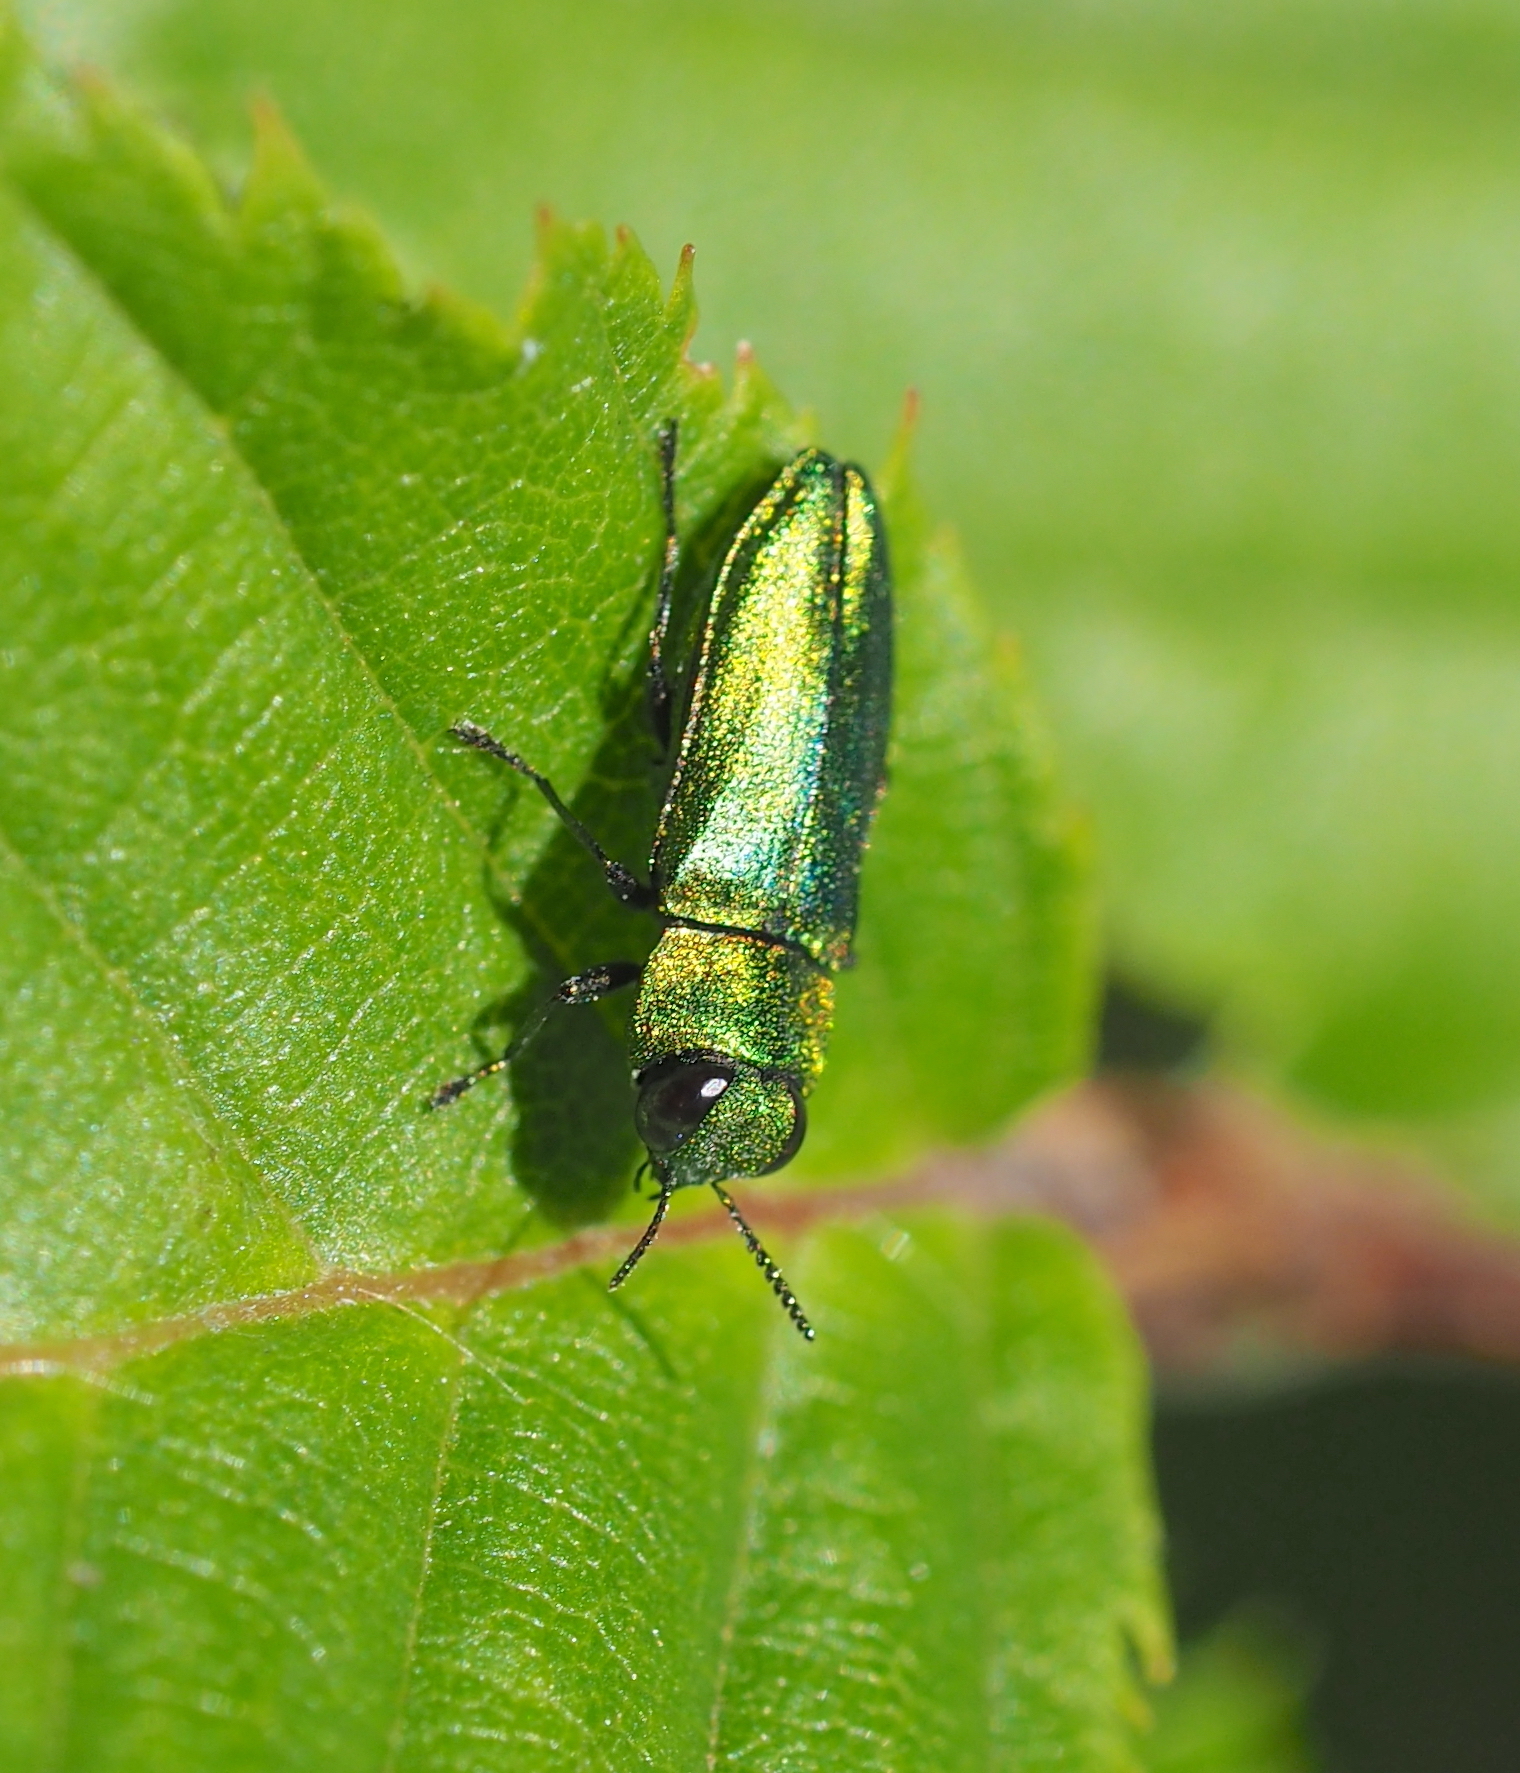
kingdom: Animalia
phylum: Arthropoda
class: Insecta
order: Coleoptera
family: Buprestidae
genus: Anthaxia
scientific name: Anthaxia nitidula
